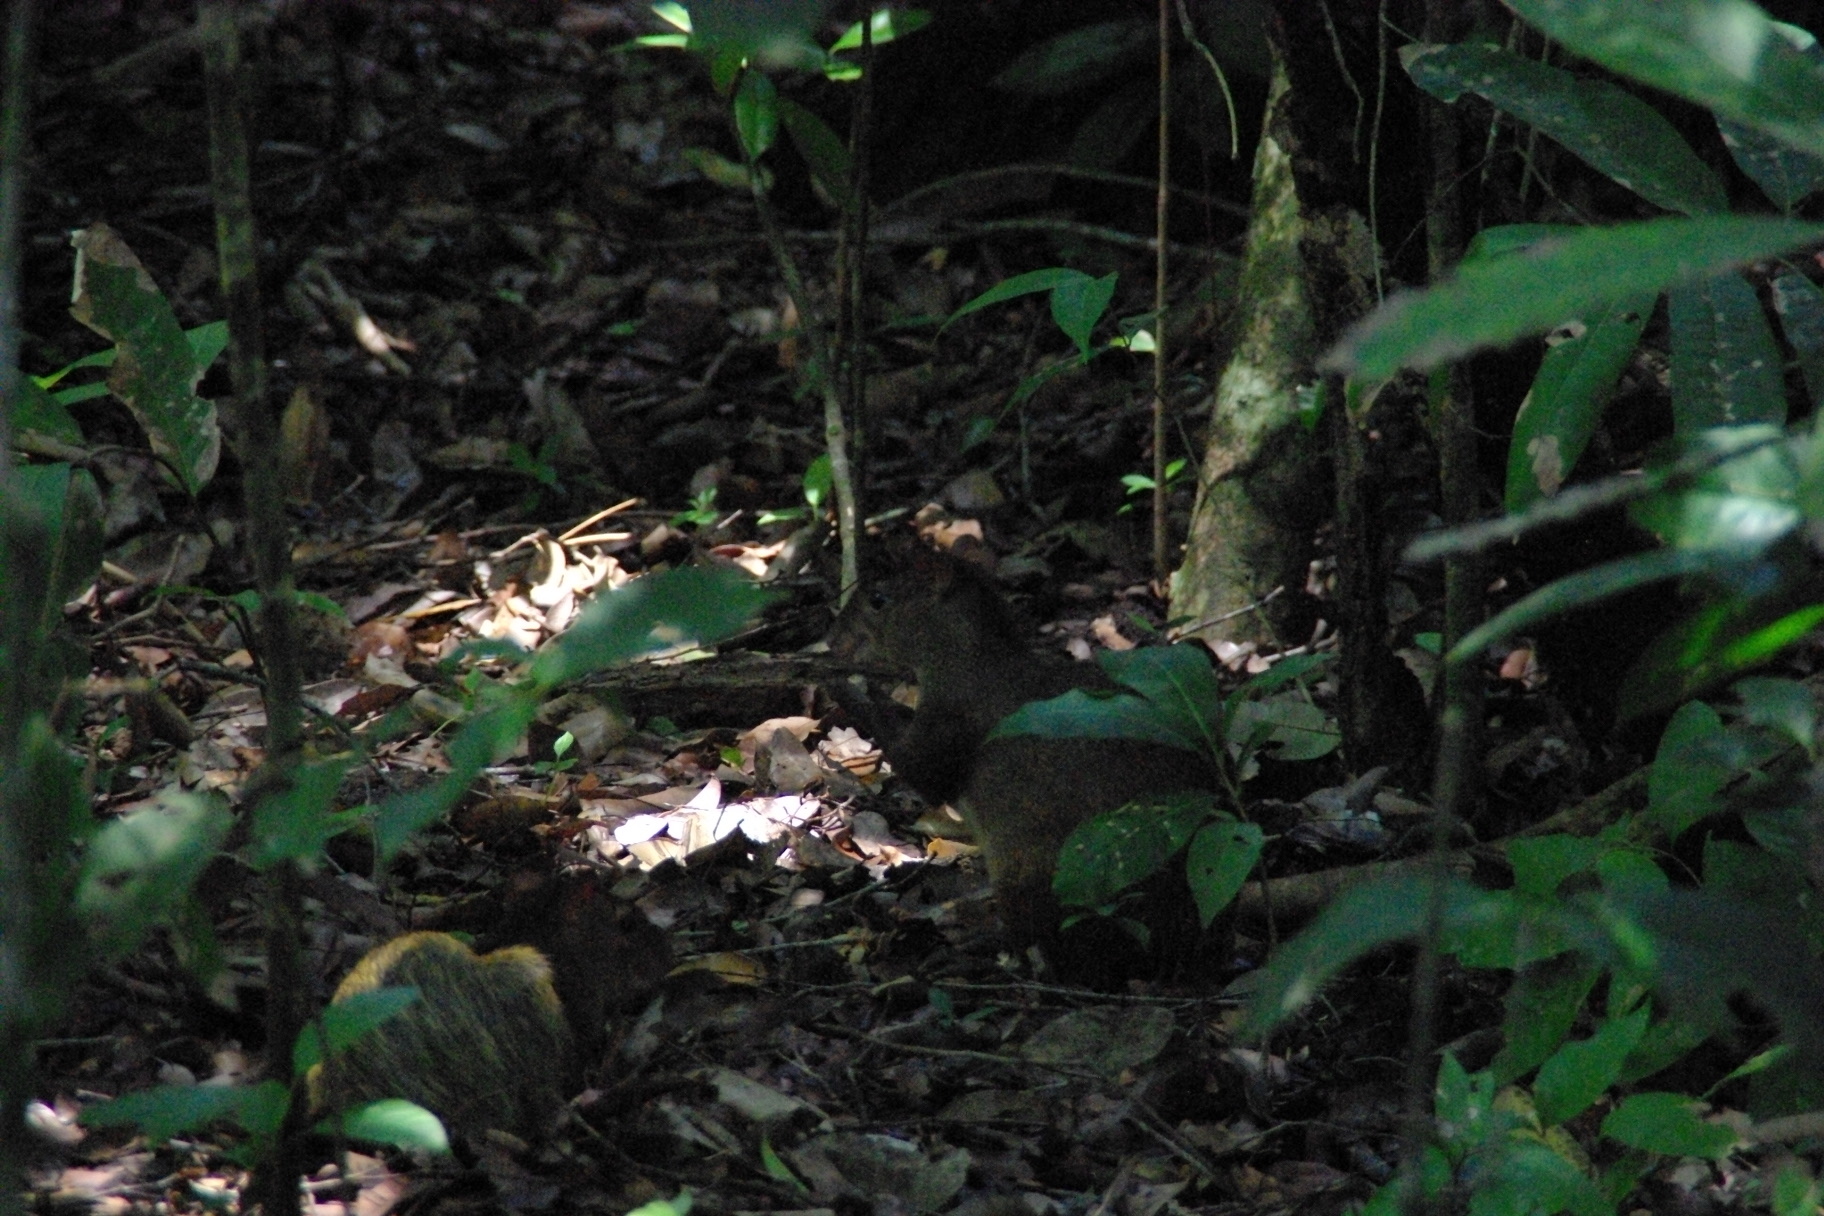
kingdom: Animalia
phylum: Chordata
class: Mammalia
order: Rodentia
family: Dasyproctidae
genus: Dasyprocta
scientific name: Dasyprocta punctata
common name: Central american agouti
